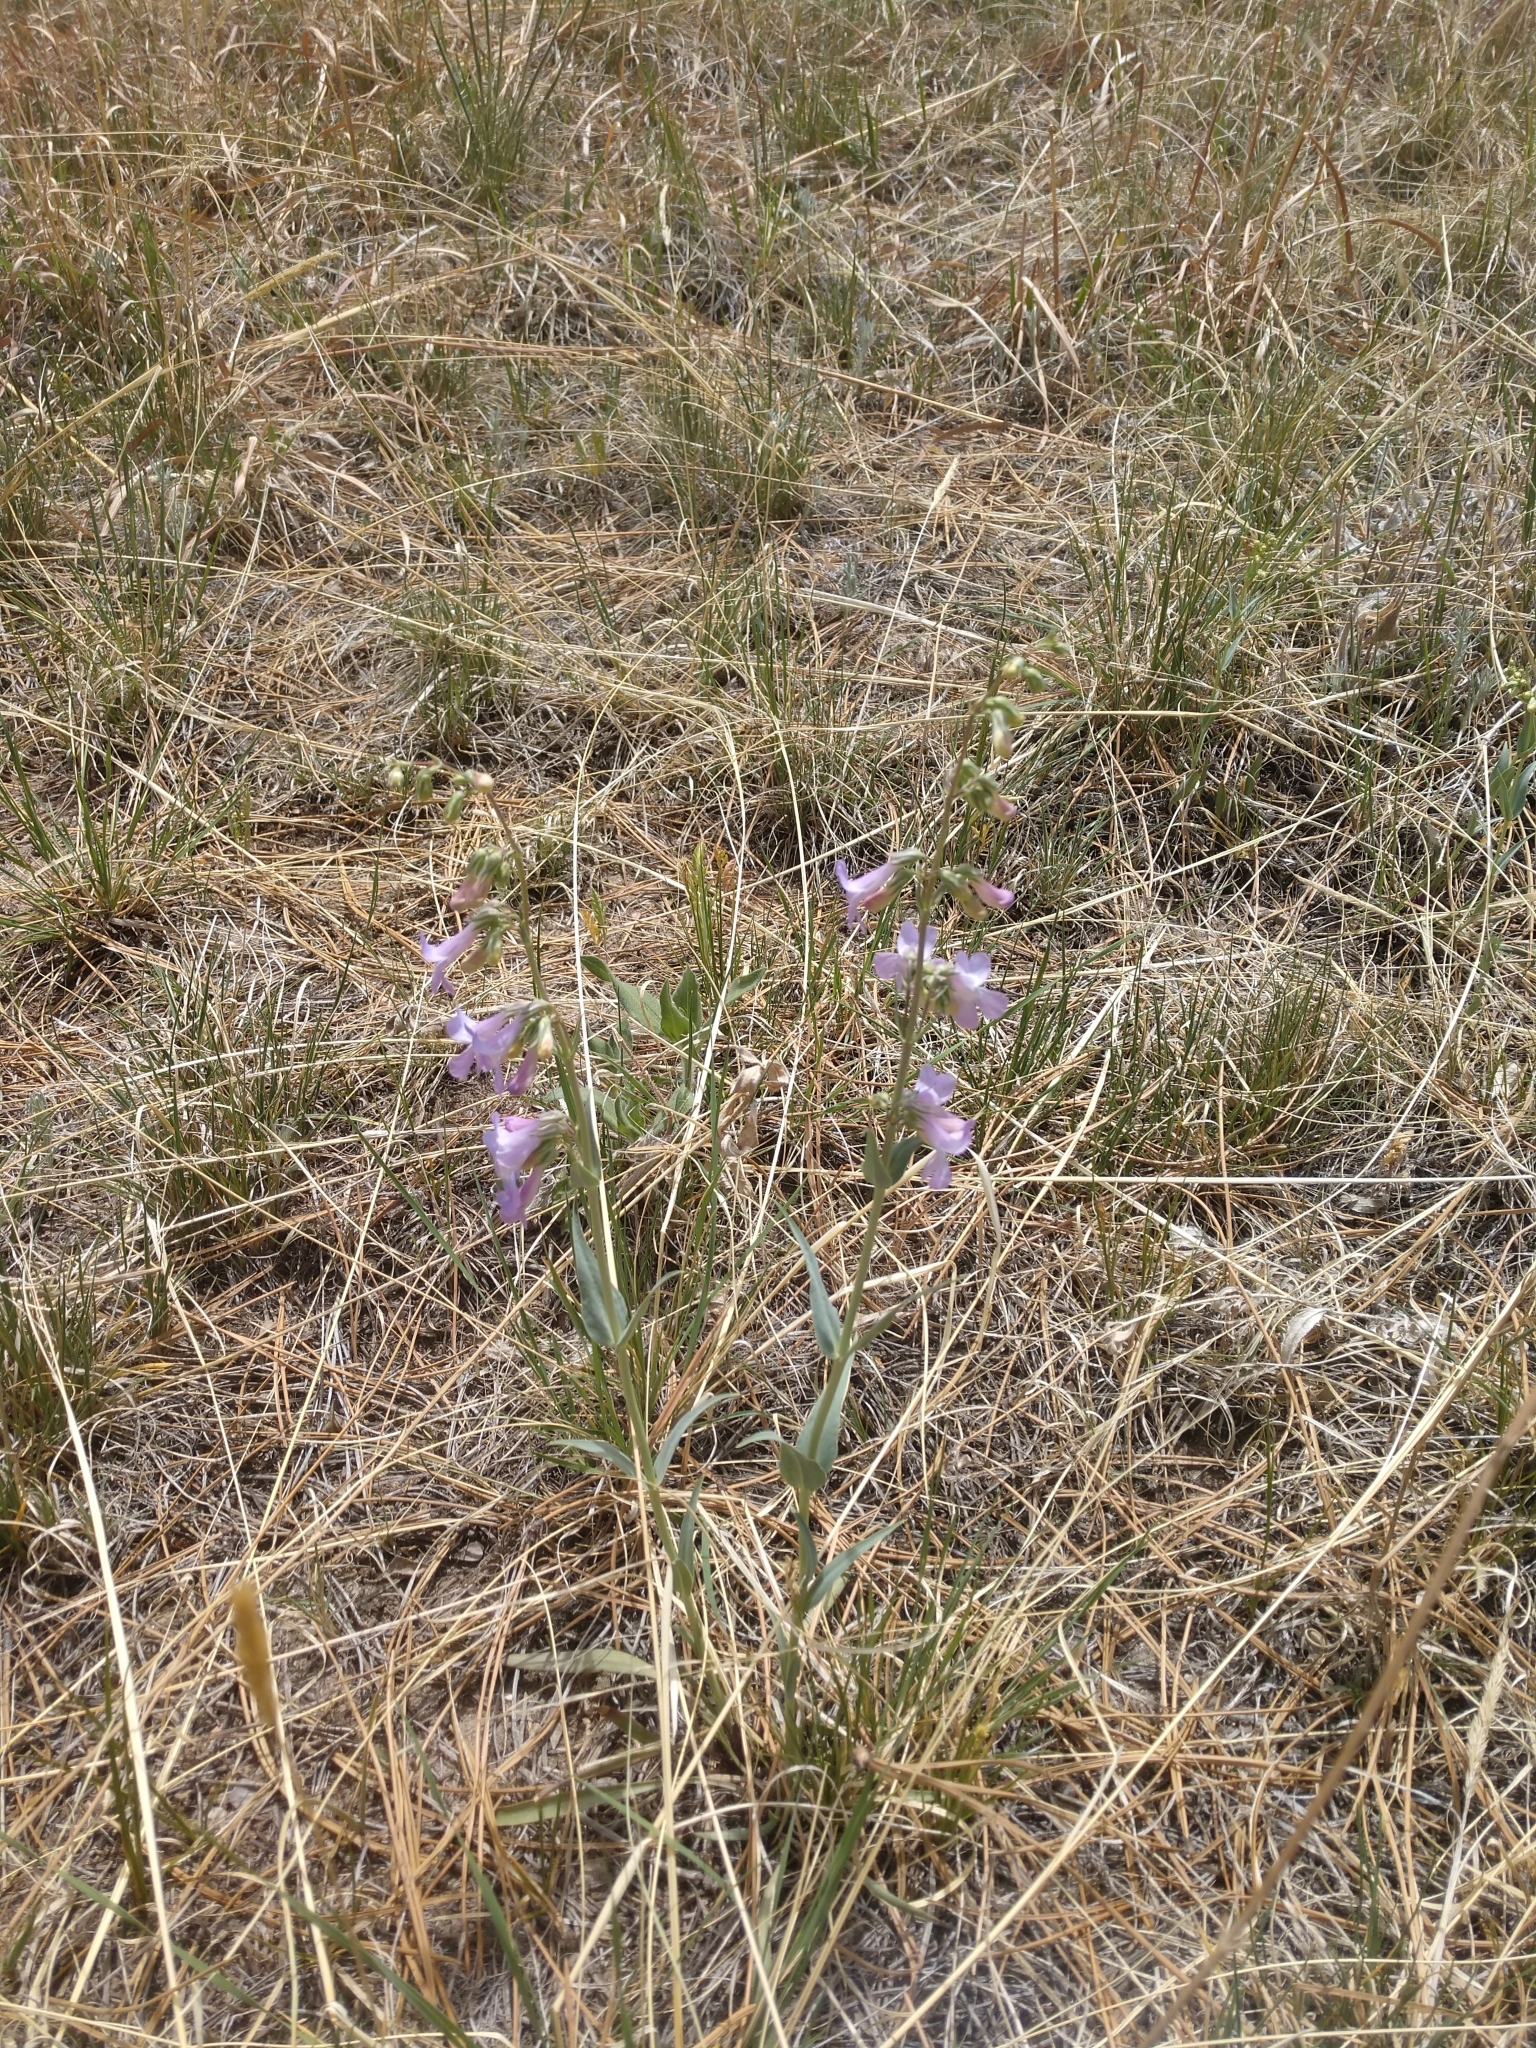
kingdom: Plantae
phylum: Tracheophyta
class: Magnoliopsida
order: Lamiales
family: Plantaginaceae
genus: Penstemon
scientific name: Penstemon secundiflorus
